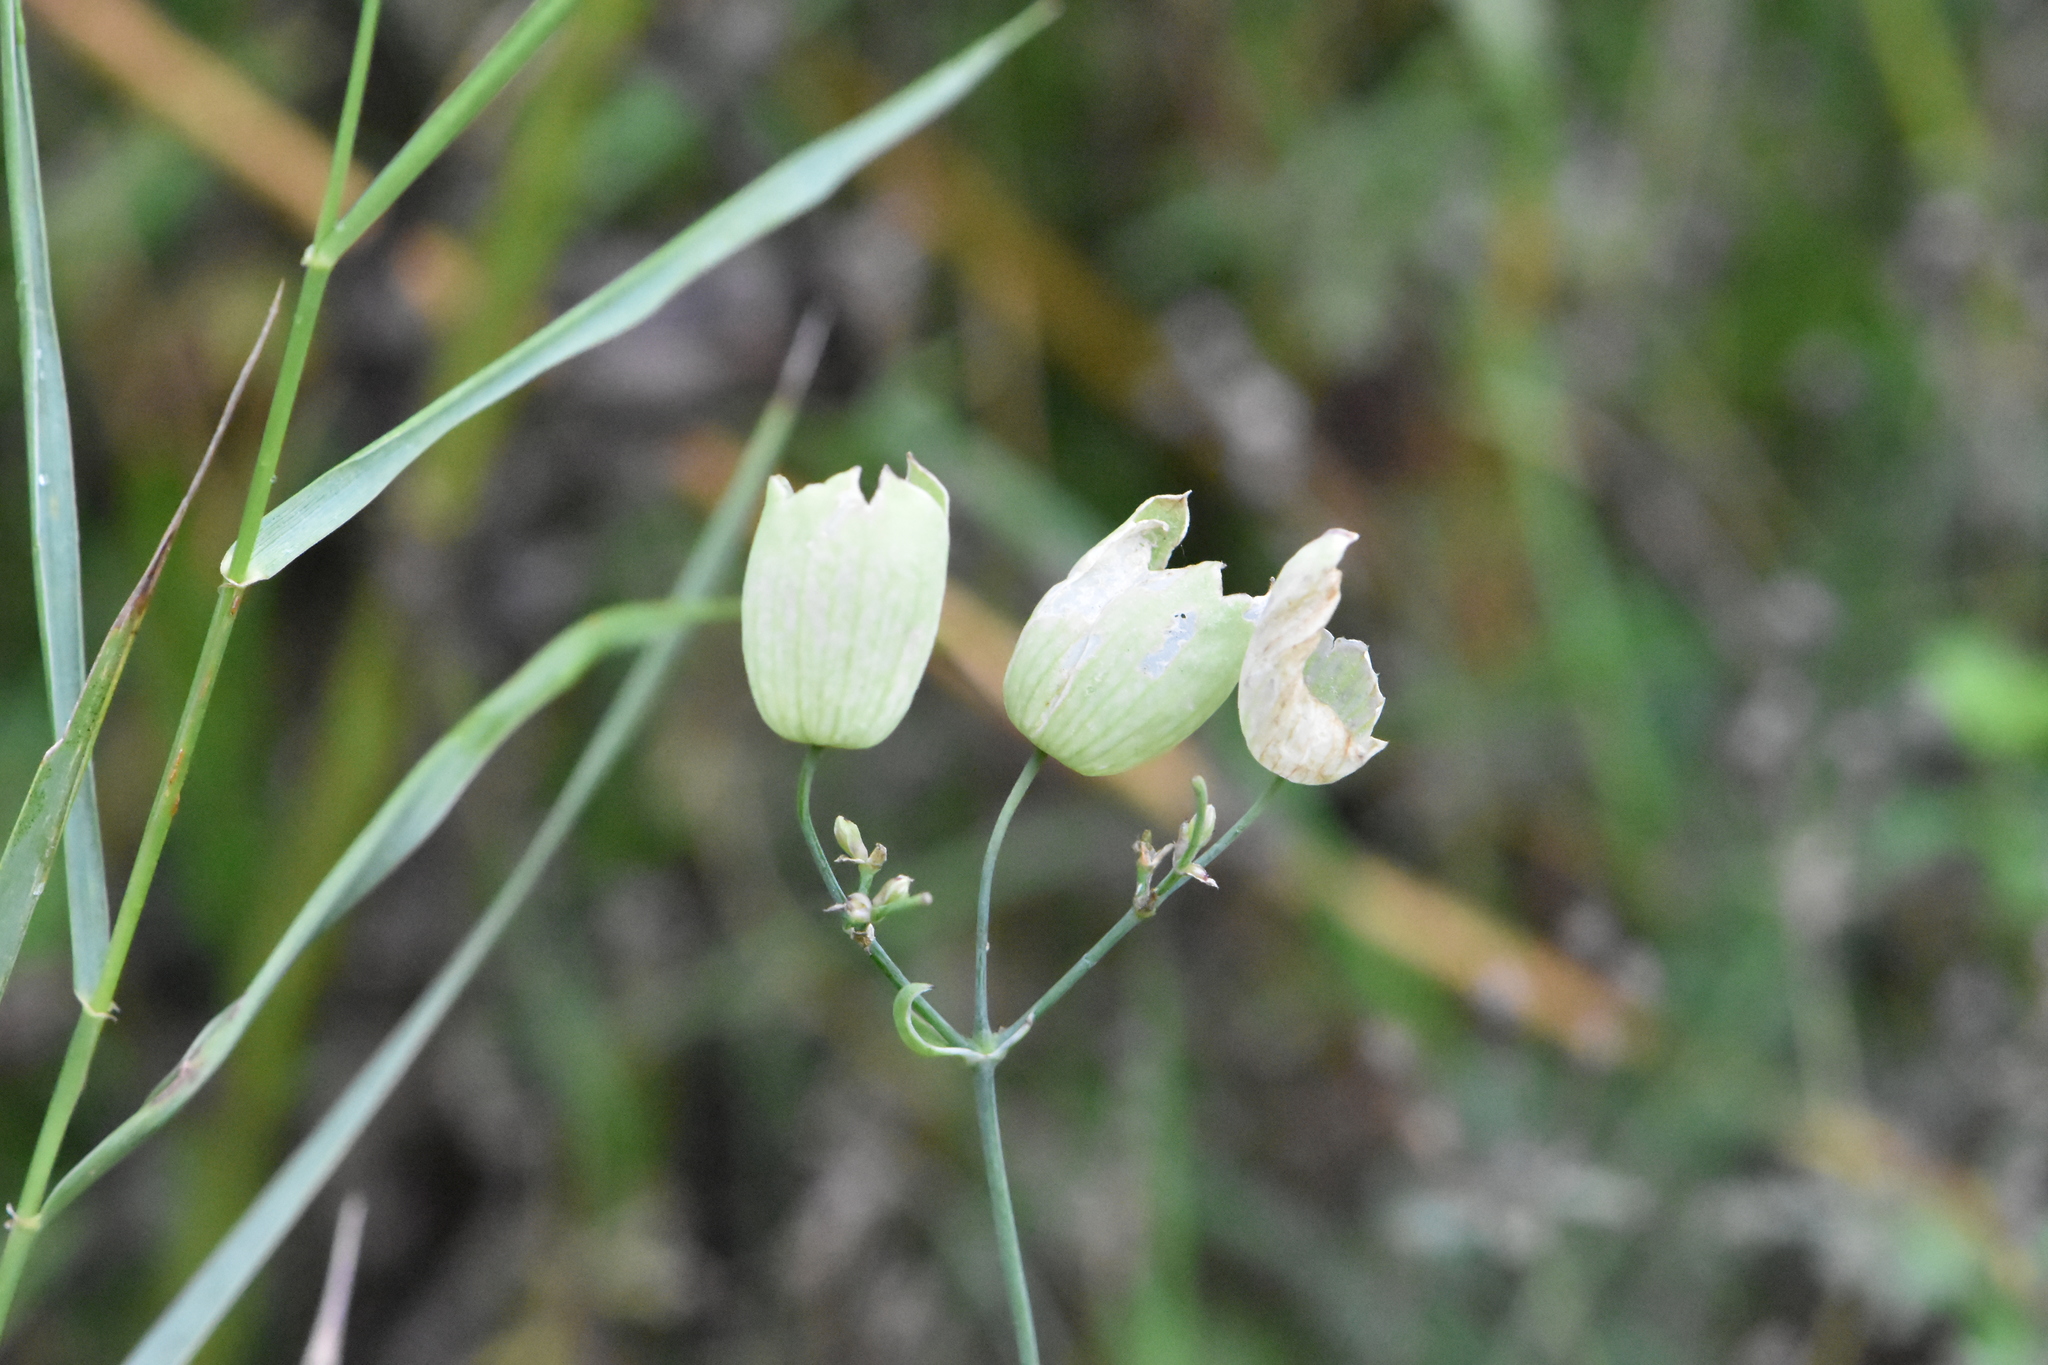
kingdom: Plantae
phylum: Tracheophyta
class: Magnoliopsida
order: Caryophyllales
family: Caryophyllaceae
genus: Silene
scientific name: Silene vulgaris
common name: Bladder campion
